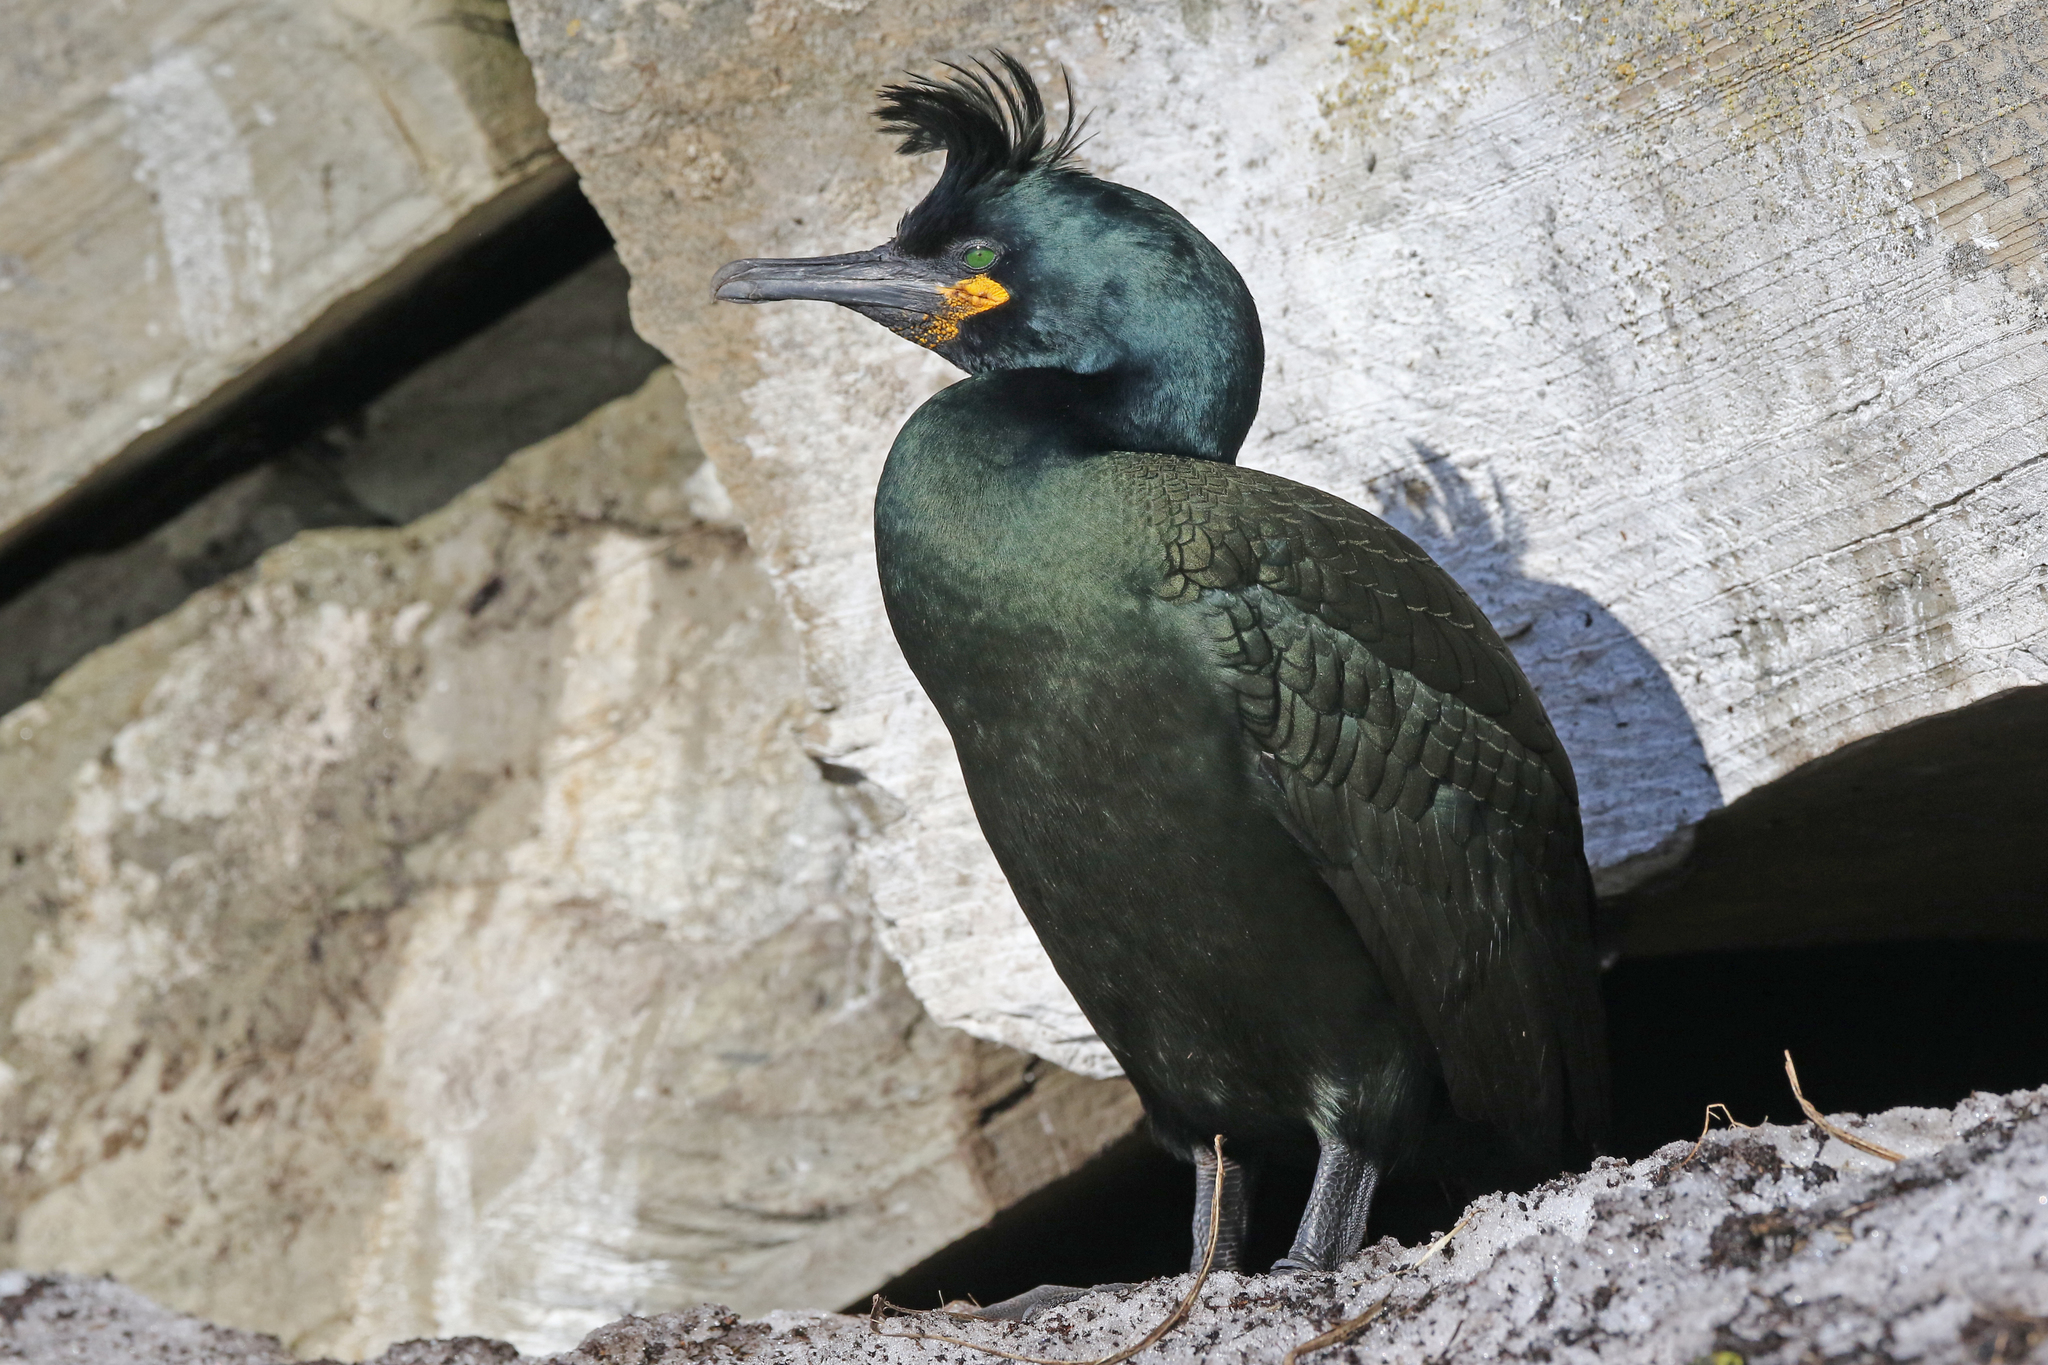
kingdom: Animalia
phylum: Chordata
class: Aves
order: Suliformes
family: Phalacrocoracidae
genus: Phalacrocorax
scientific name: Phalacrocorax aristotelis
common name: European shag
